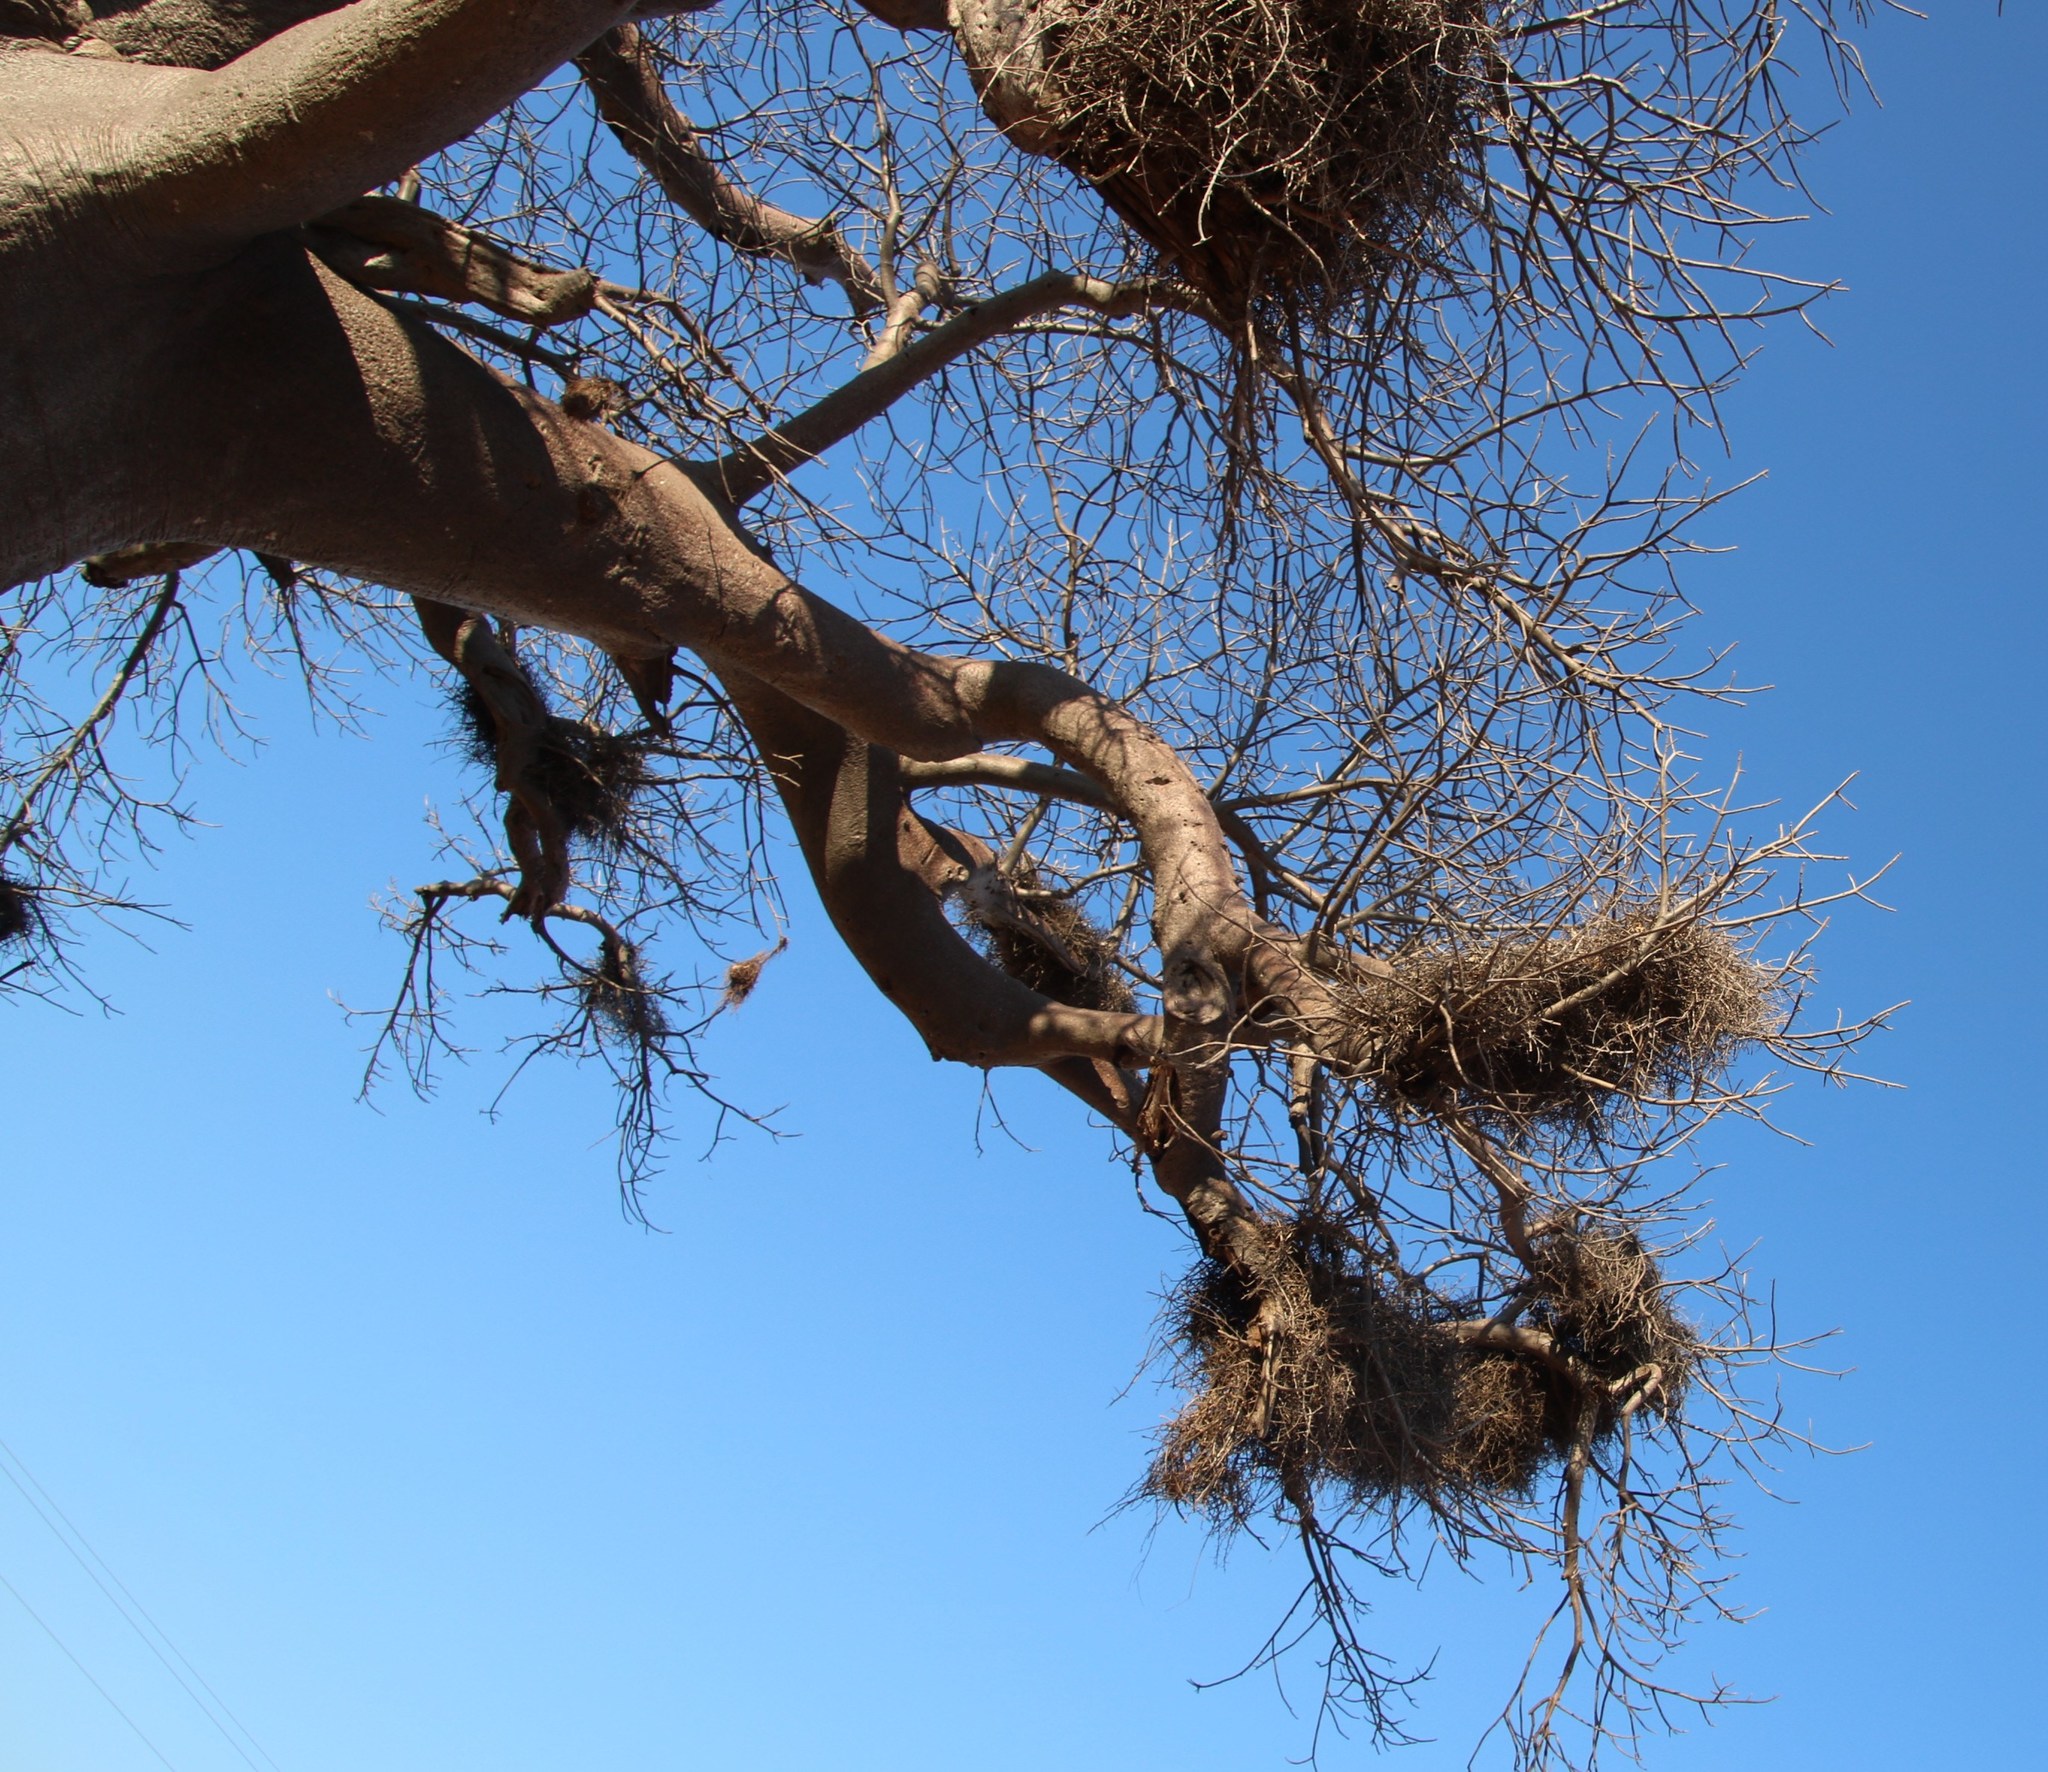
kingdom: Animalia
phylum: Chordata
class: Aves
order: Passeriformes
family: Ploceidae
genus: Bubalornis
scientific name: Bubalornis niger
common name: Red-billed buffalo weaver
